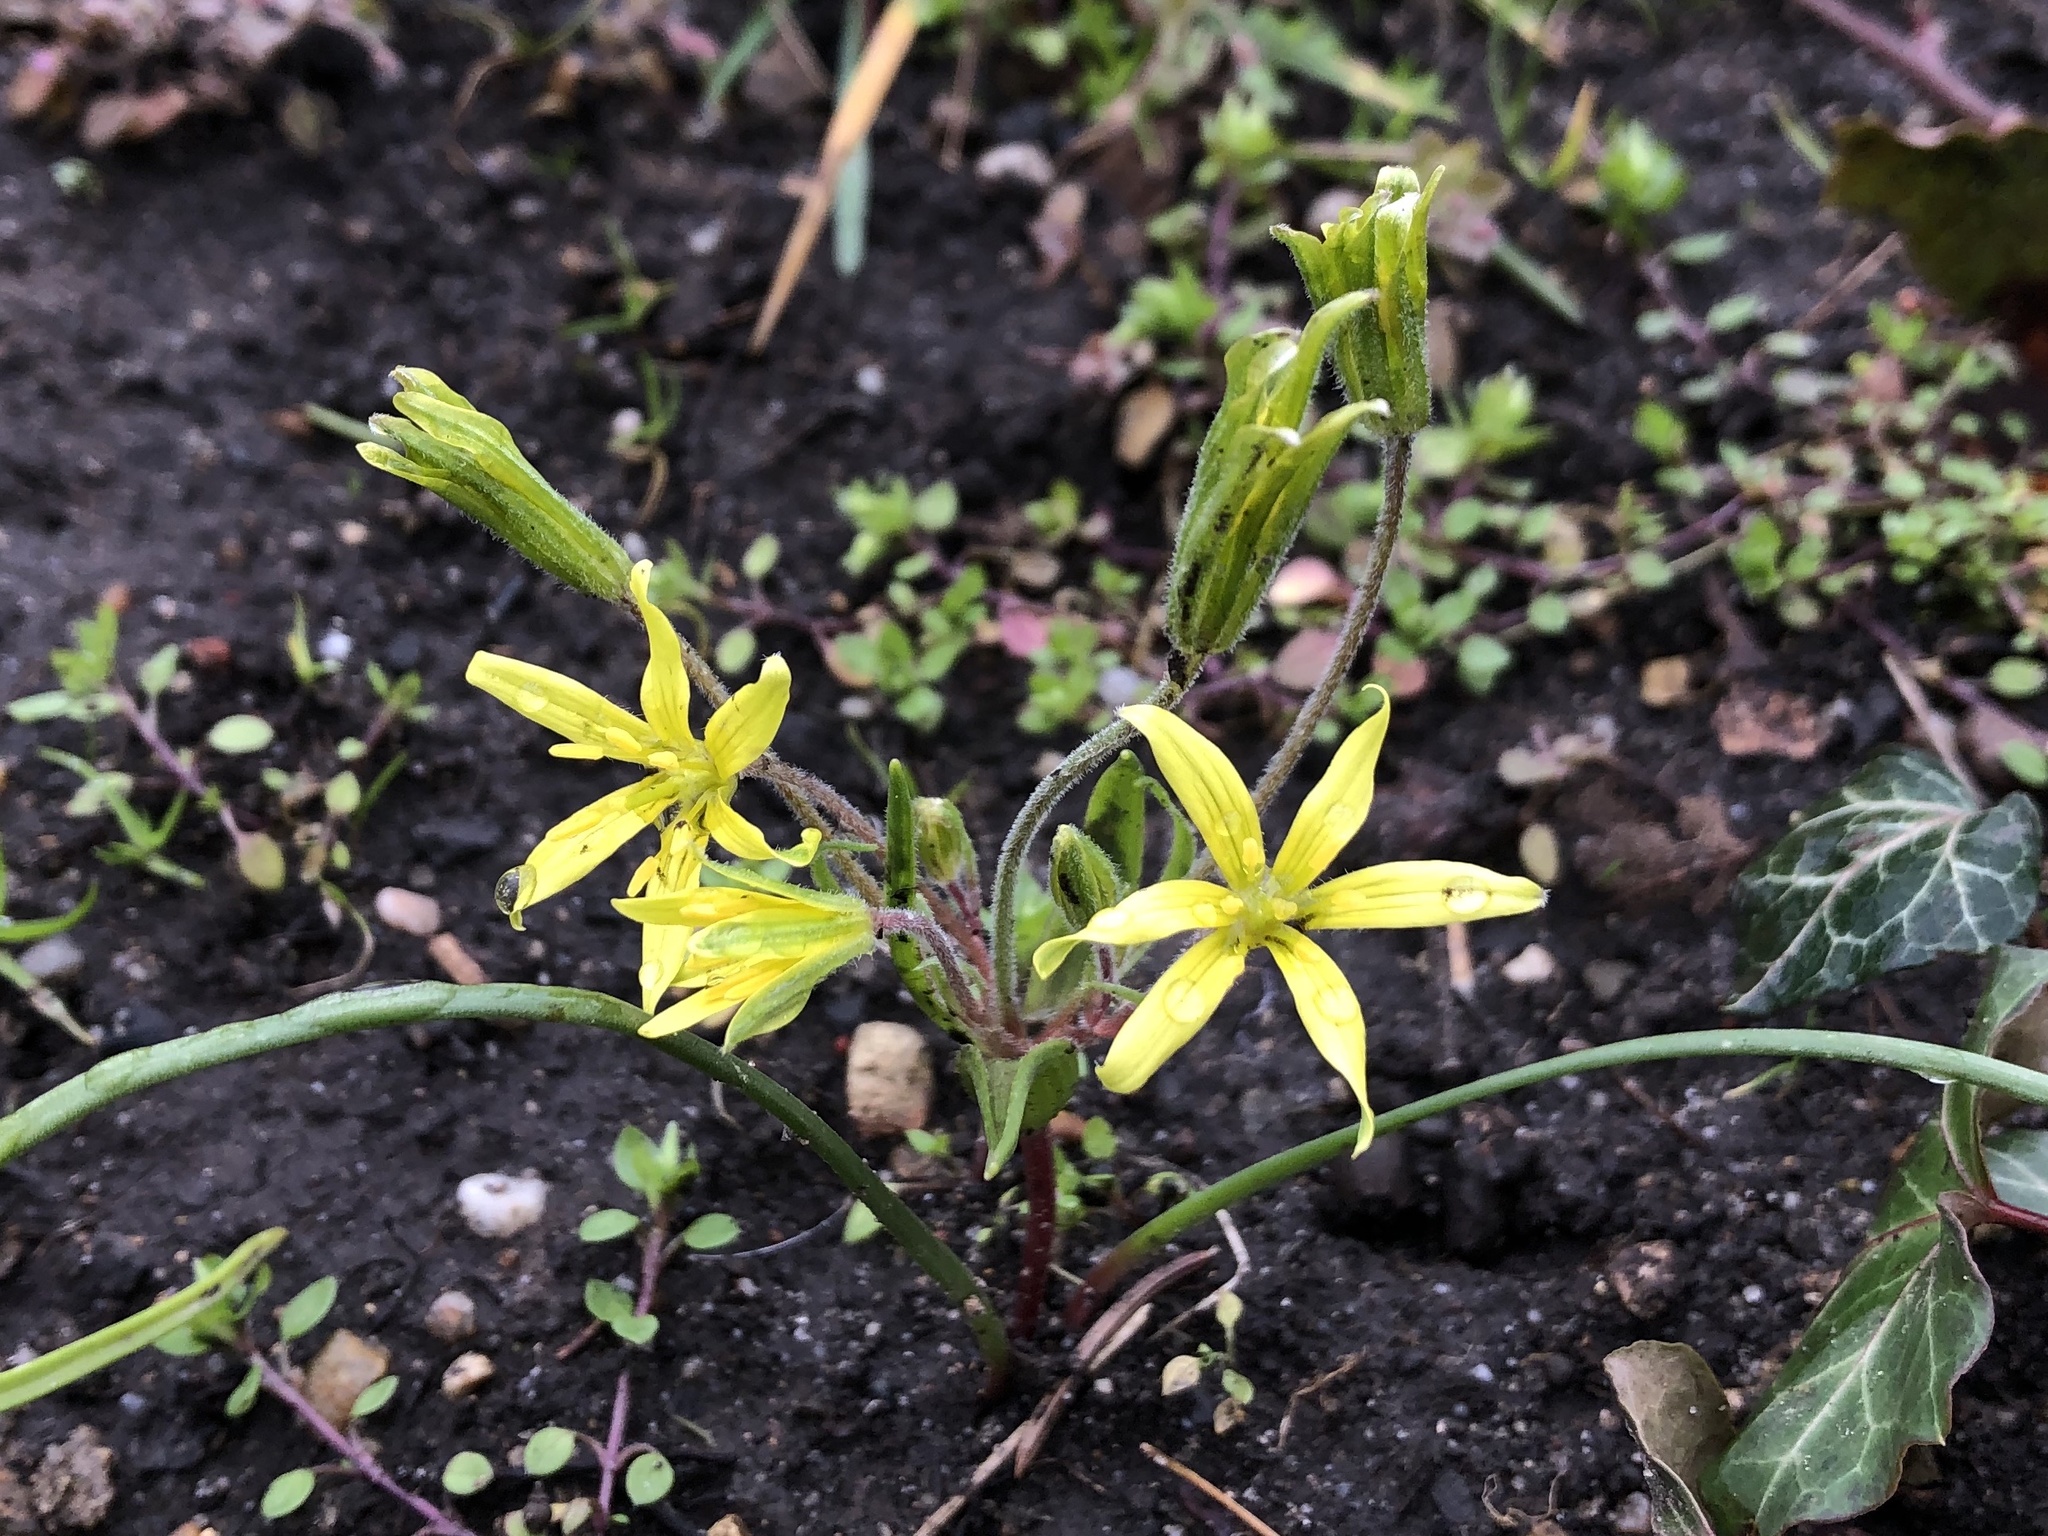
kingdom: Plantae
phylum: Tracheophyta
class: Liliopsida
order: Liliales
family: Liliaceae
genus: Gagea
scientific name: Gagea villosa
